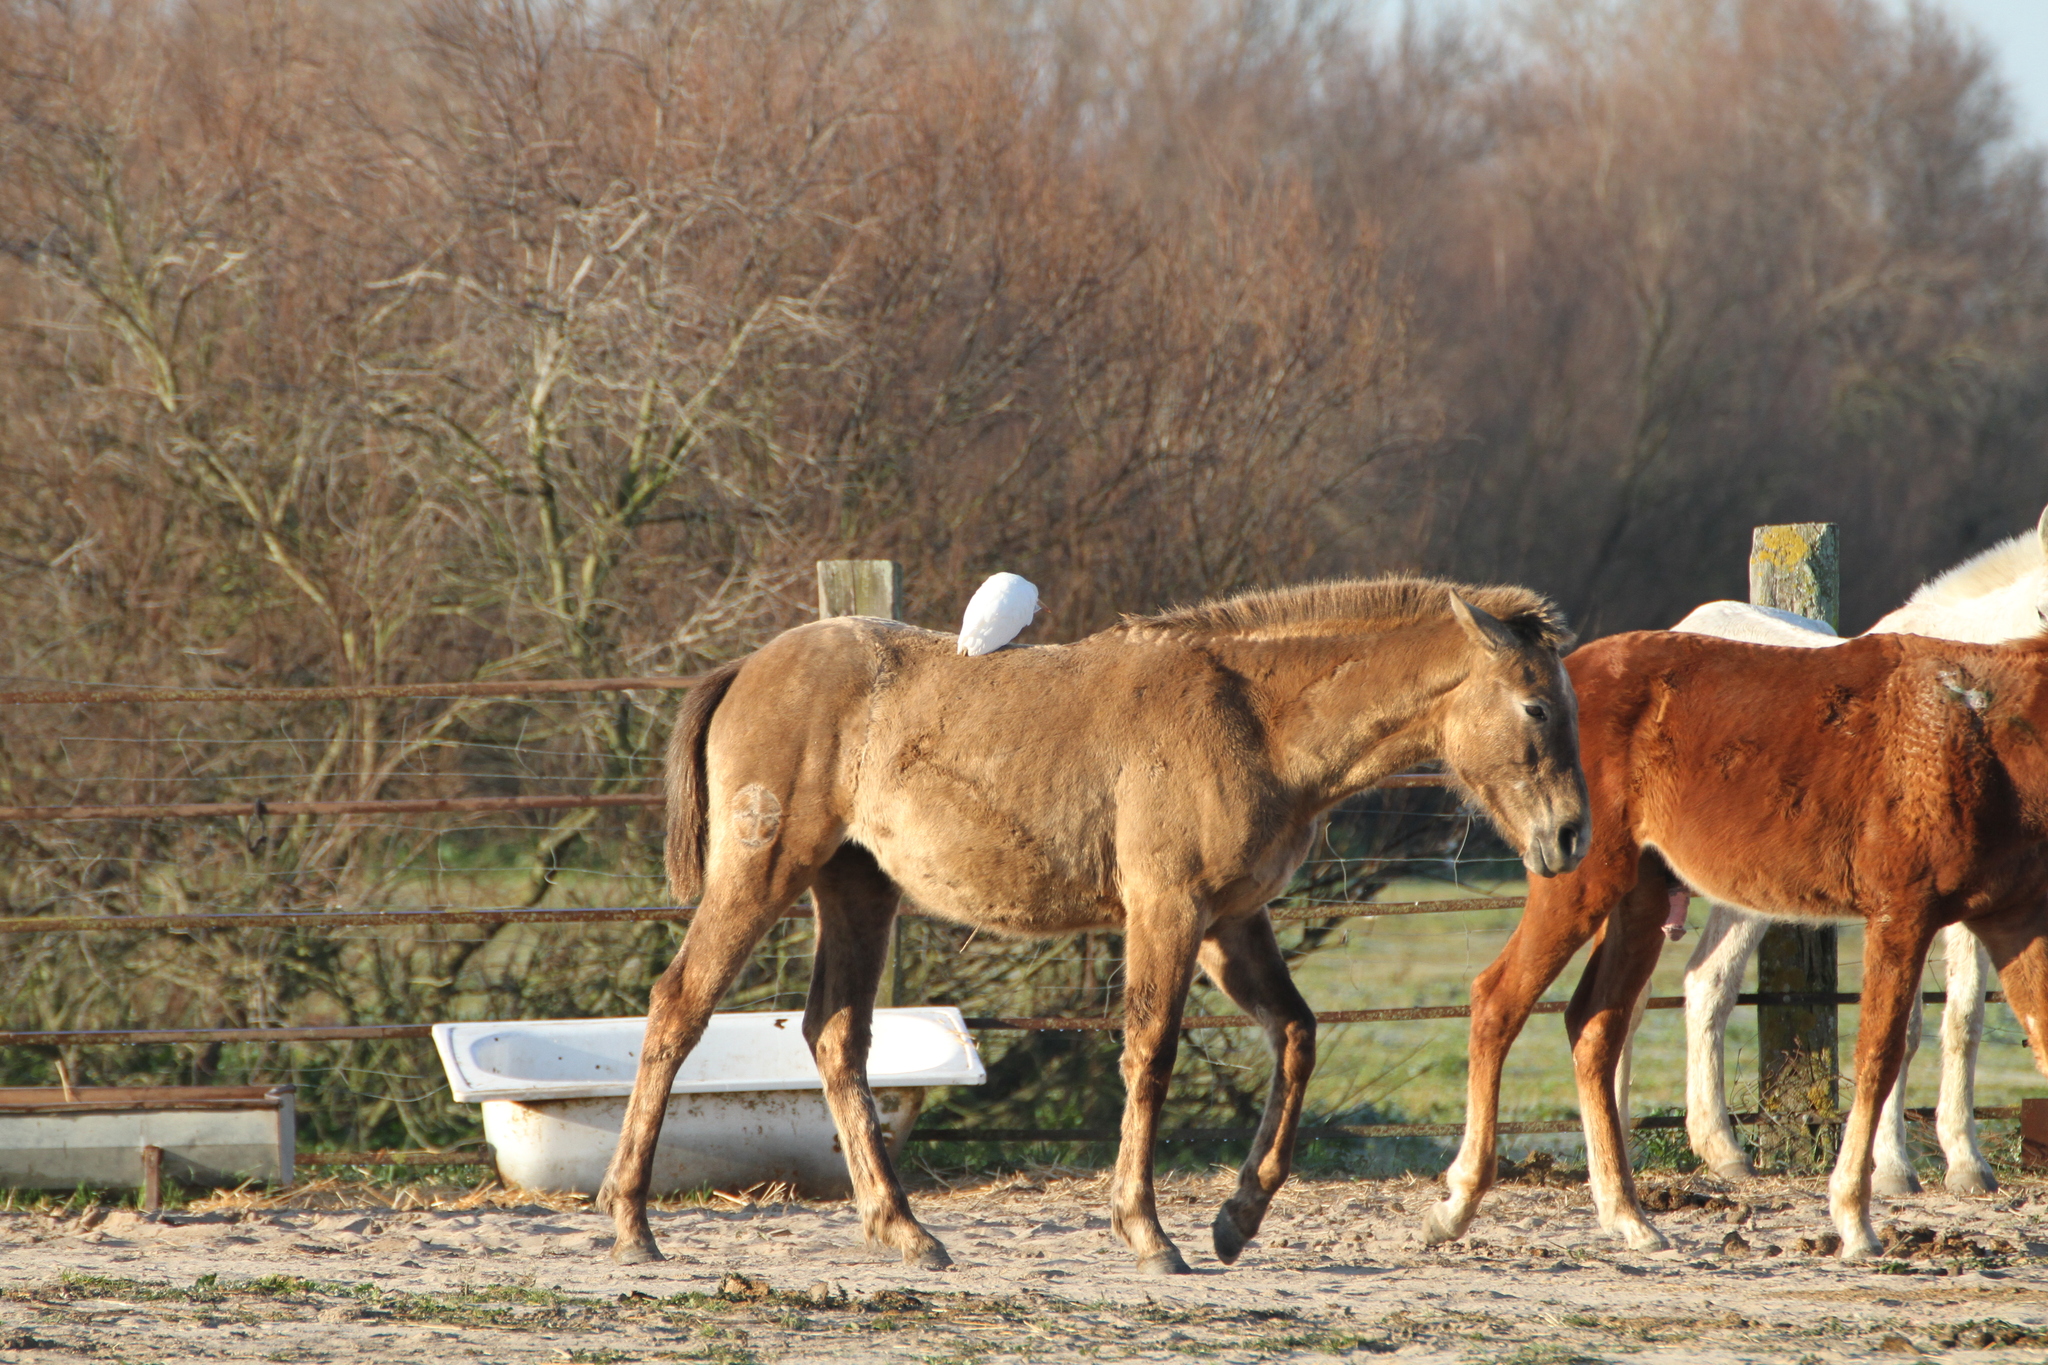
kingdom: Animalia
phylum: Chordata
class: Aves
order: Pelecaniformes
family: Ardeidae
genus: Bubulcus
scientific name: Bubulcus ibis
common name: Cattle egret
